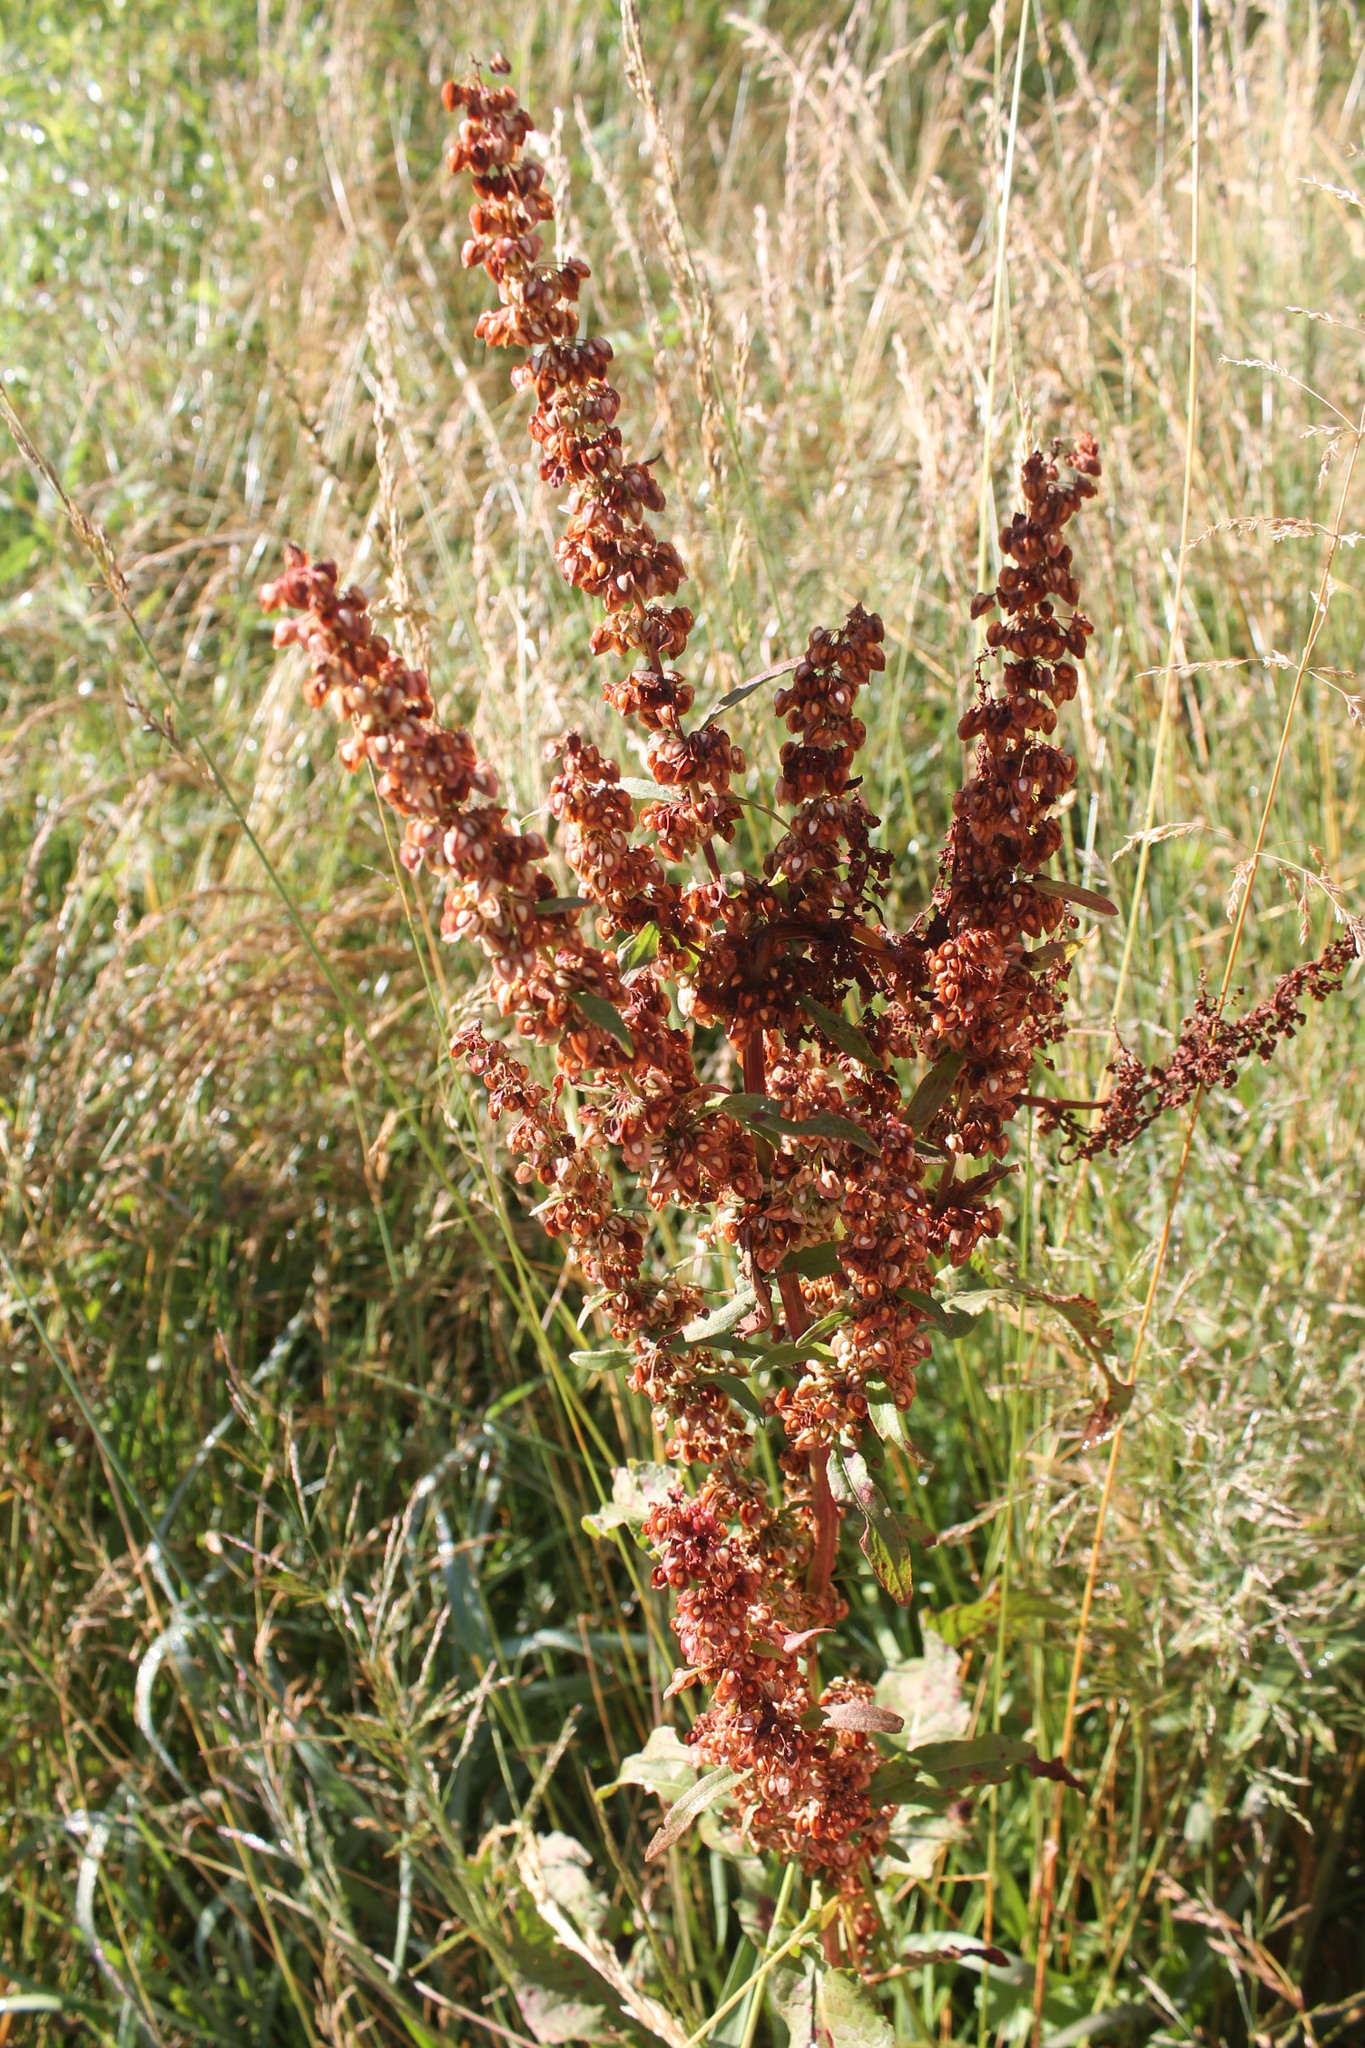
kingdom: Plantae
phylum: Tracheophyta
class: Magnoliopsida
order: Caryophyllales
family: Polygonaceae
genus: Rumex
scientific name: Rumex crispus
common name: Curled dock
